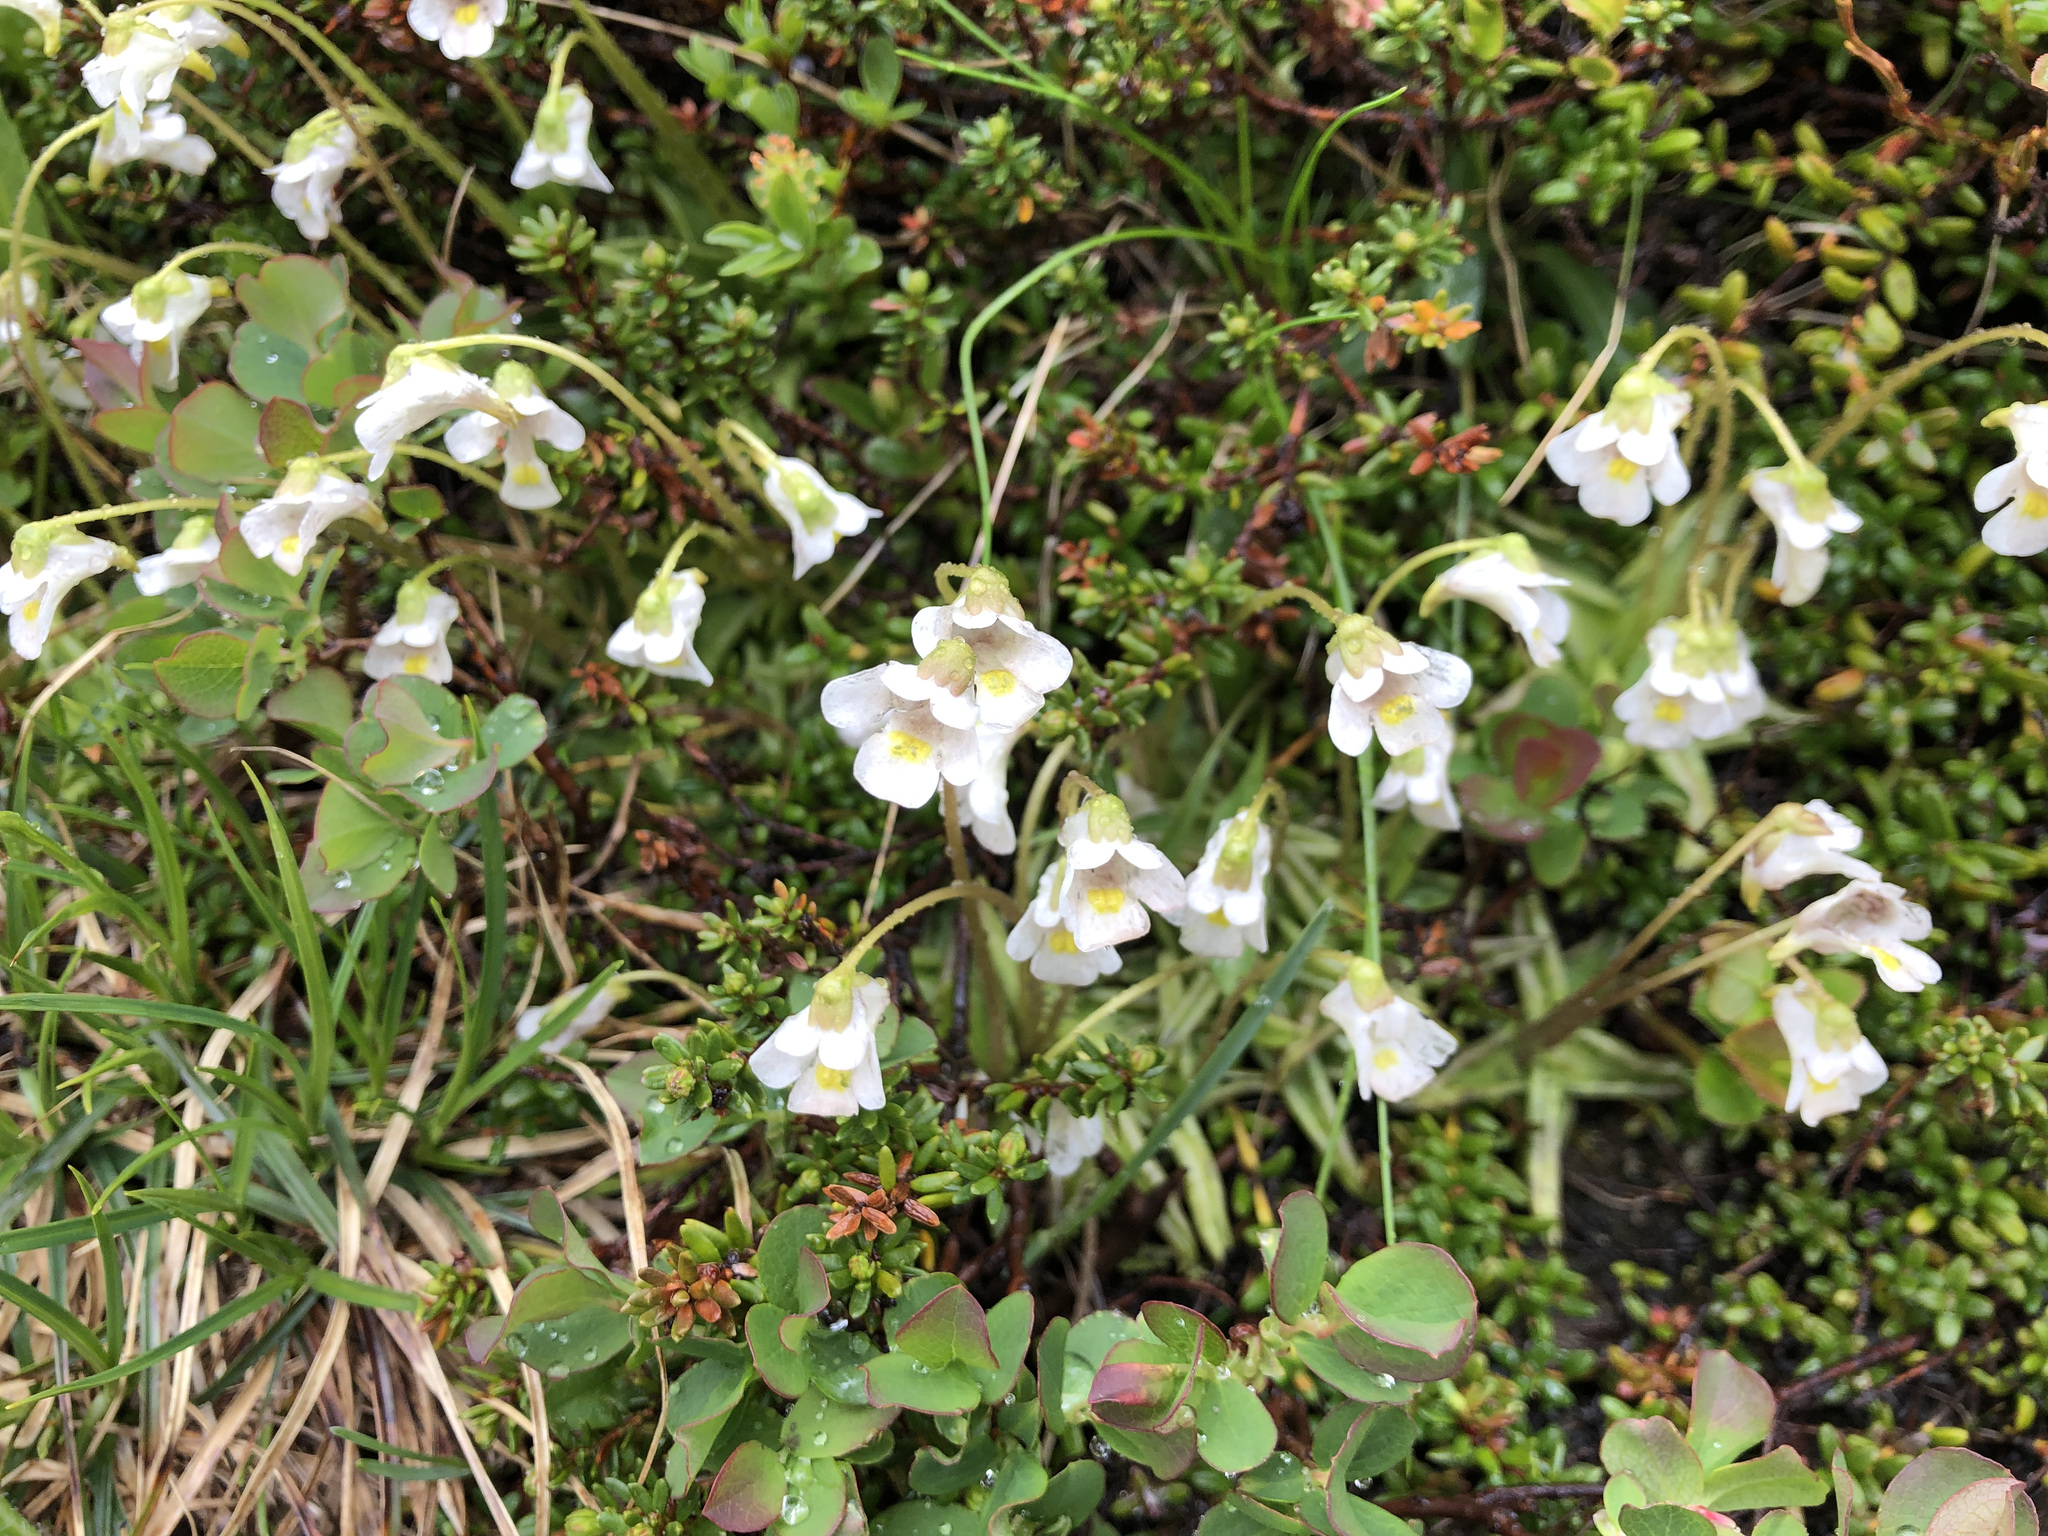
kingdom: Plantae
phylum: Tracheophyta
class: Magnoliopsida
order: Lamiales
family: Lentibulariaceae
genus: Pinguicula
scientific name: Pinguicula alpina
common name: Alpine butterwort
